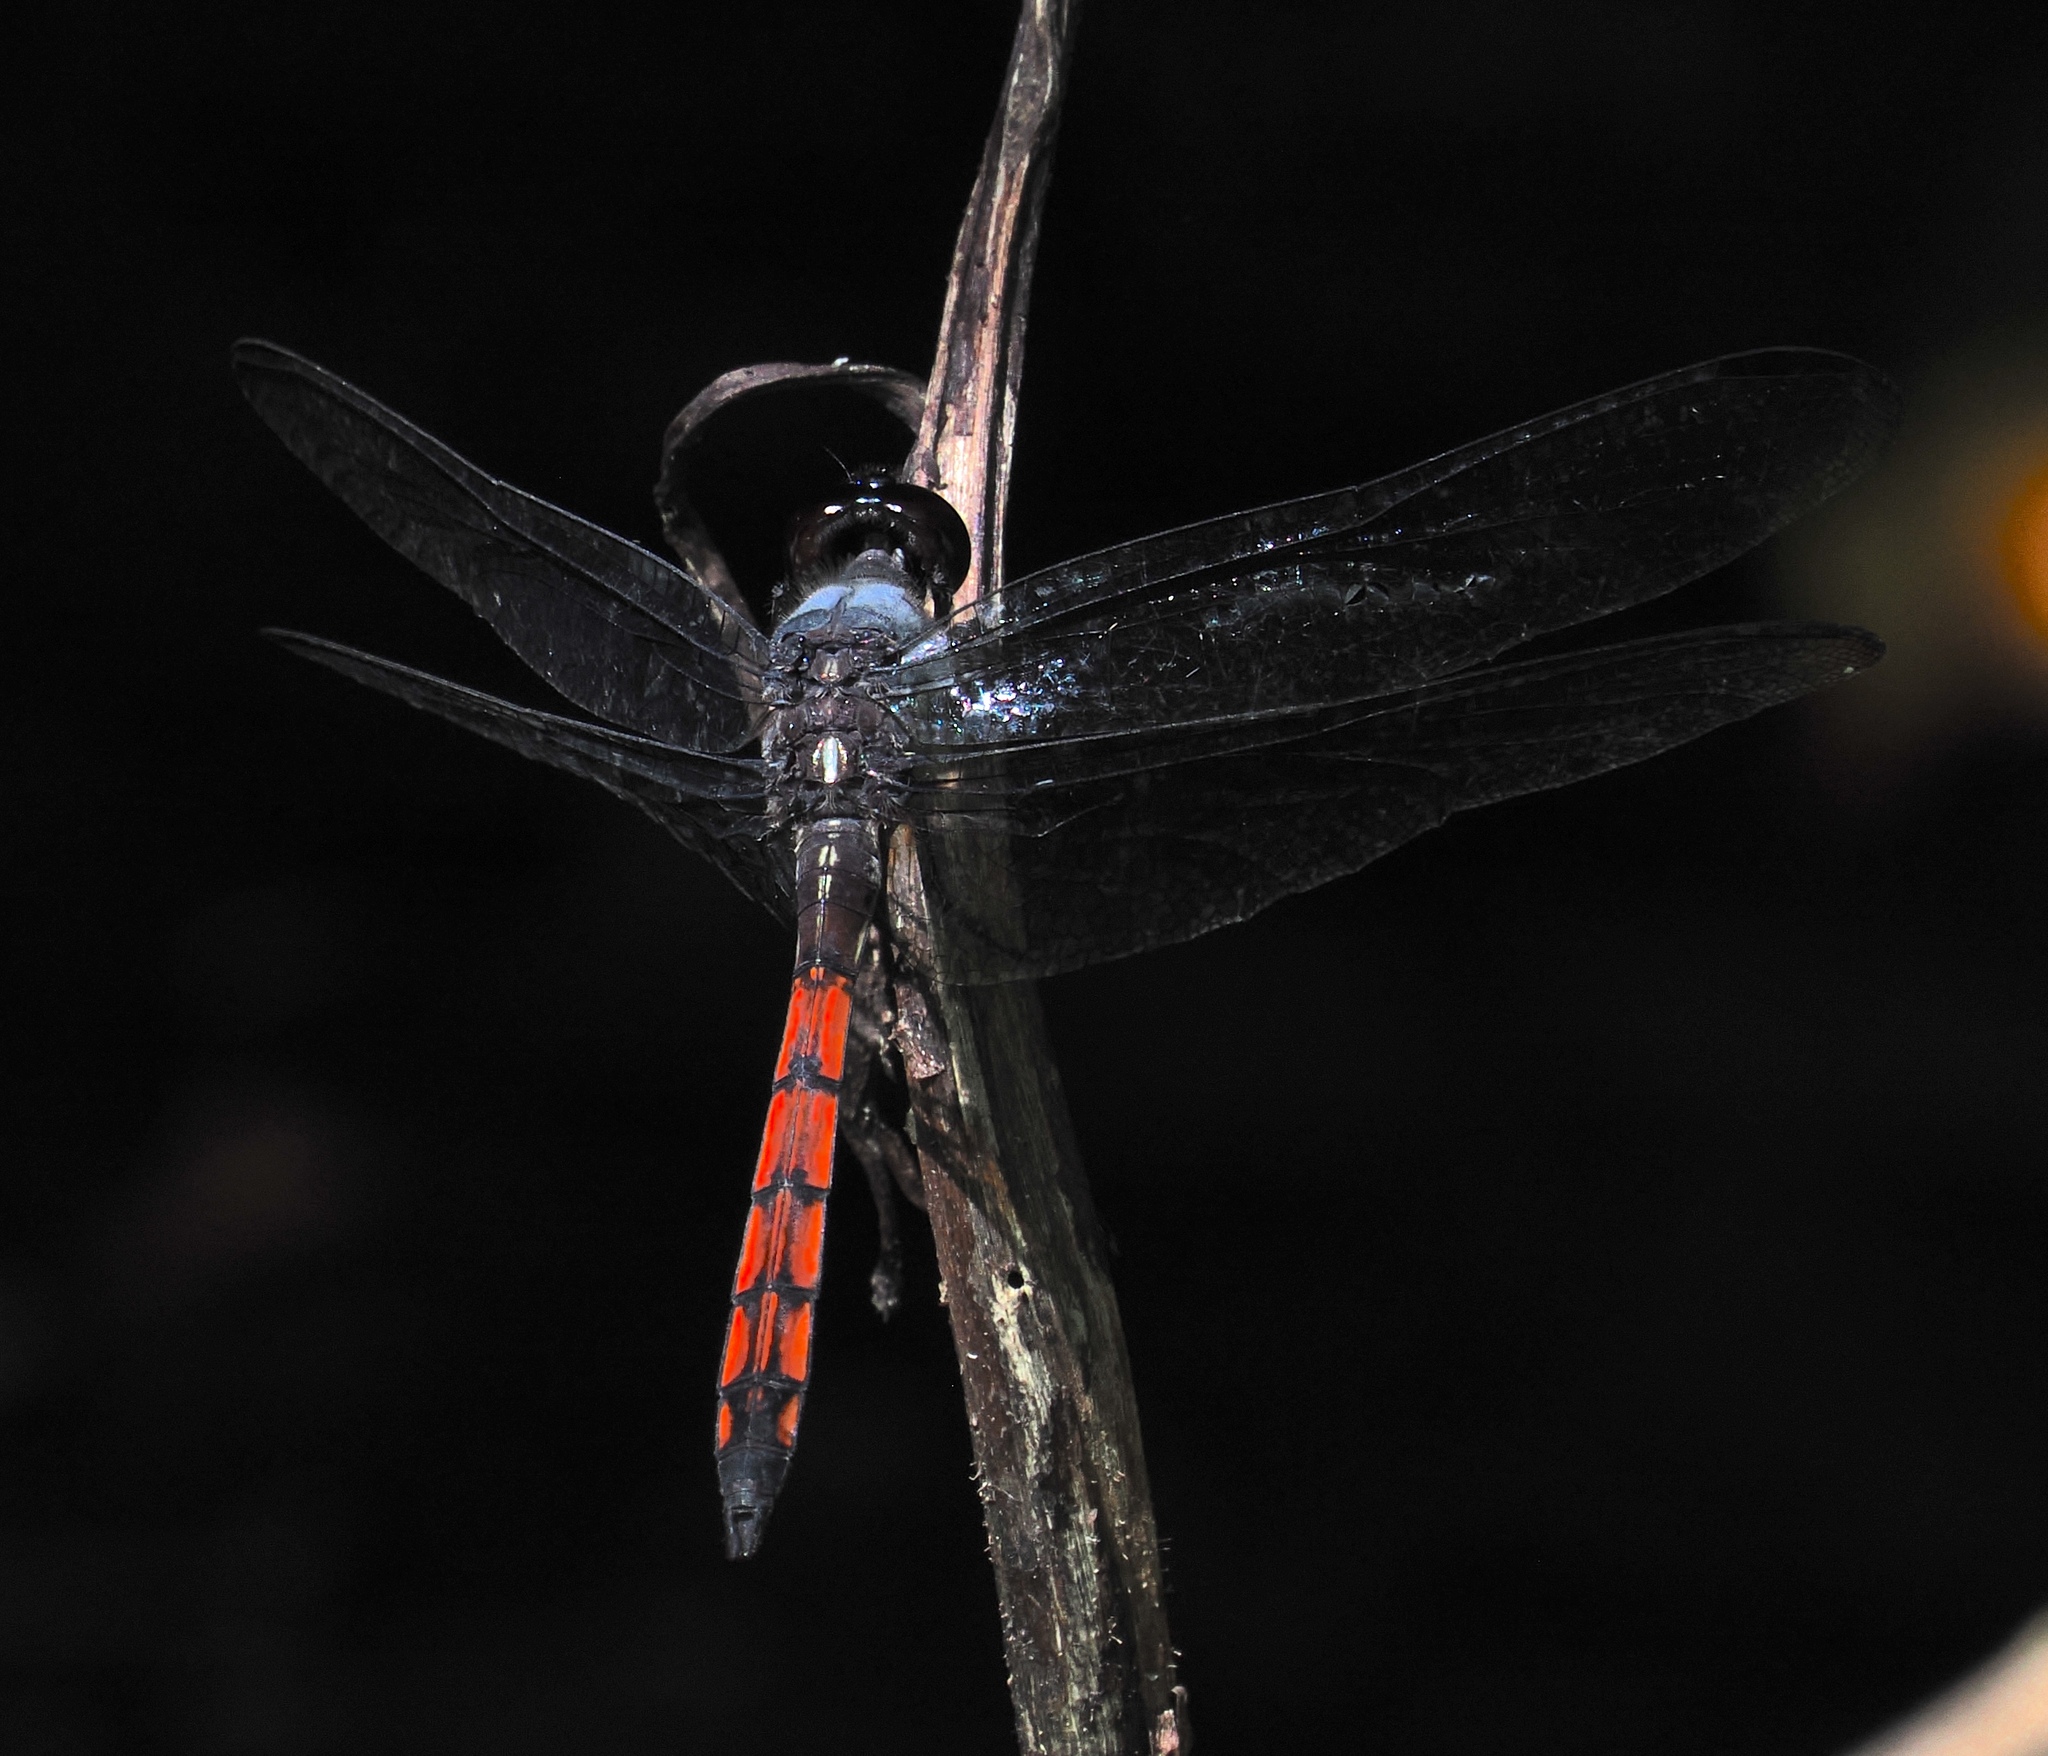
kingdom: Animalia
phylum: Arthropoda
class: Insecta
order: Odonata
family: Libellulidae
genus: Orthemis
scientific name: Orthemis cultriformis
